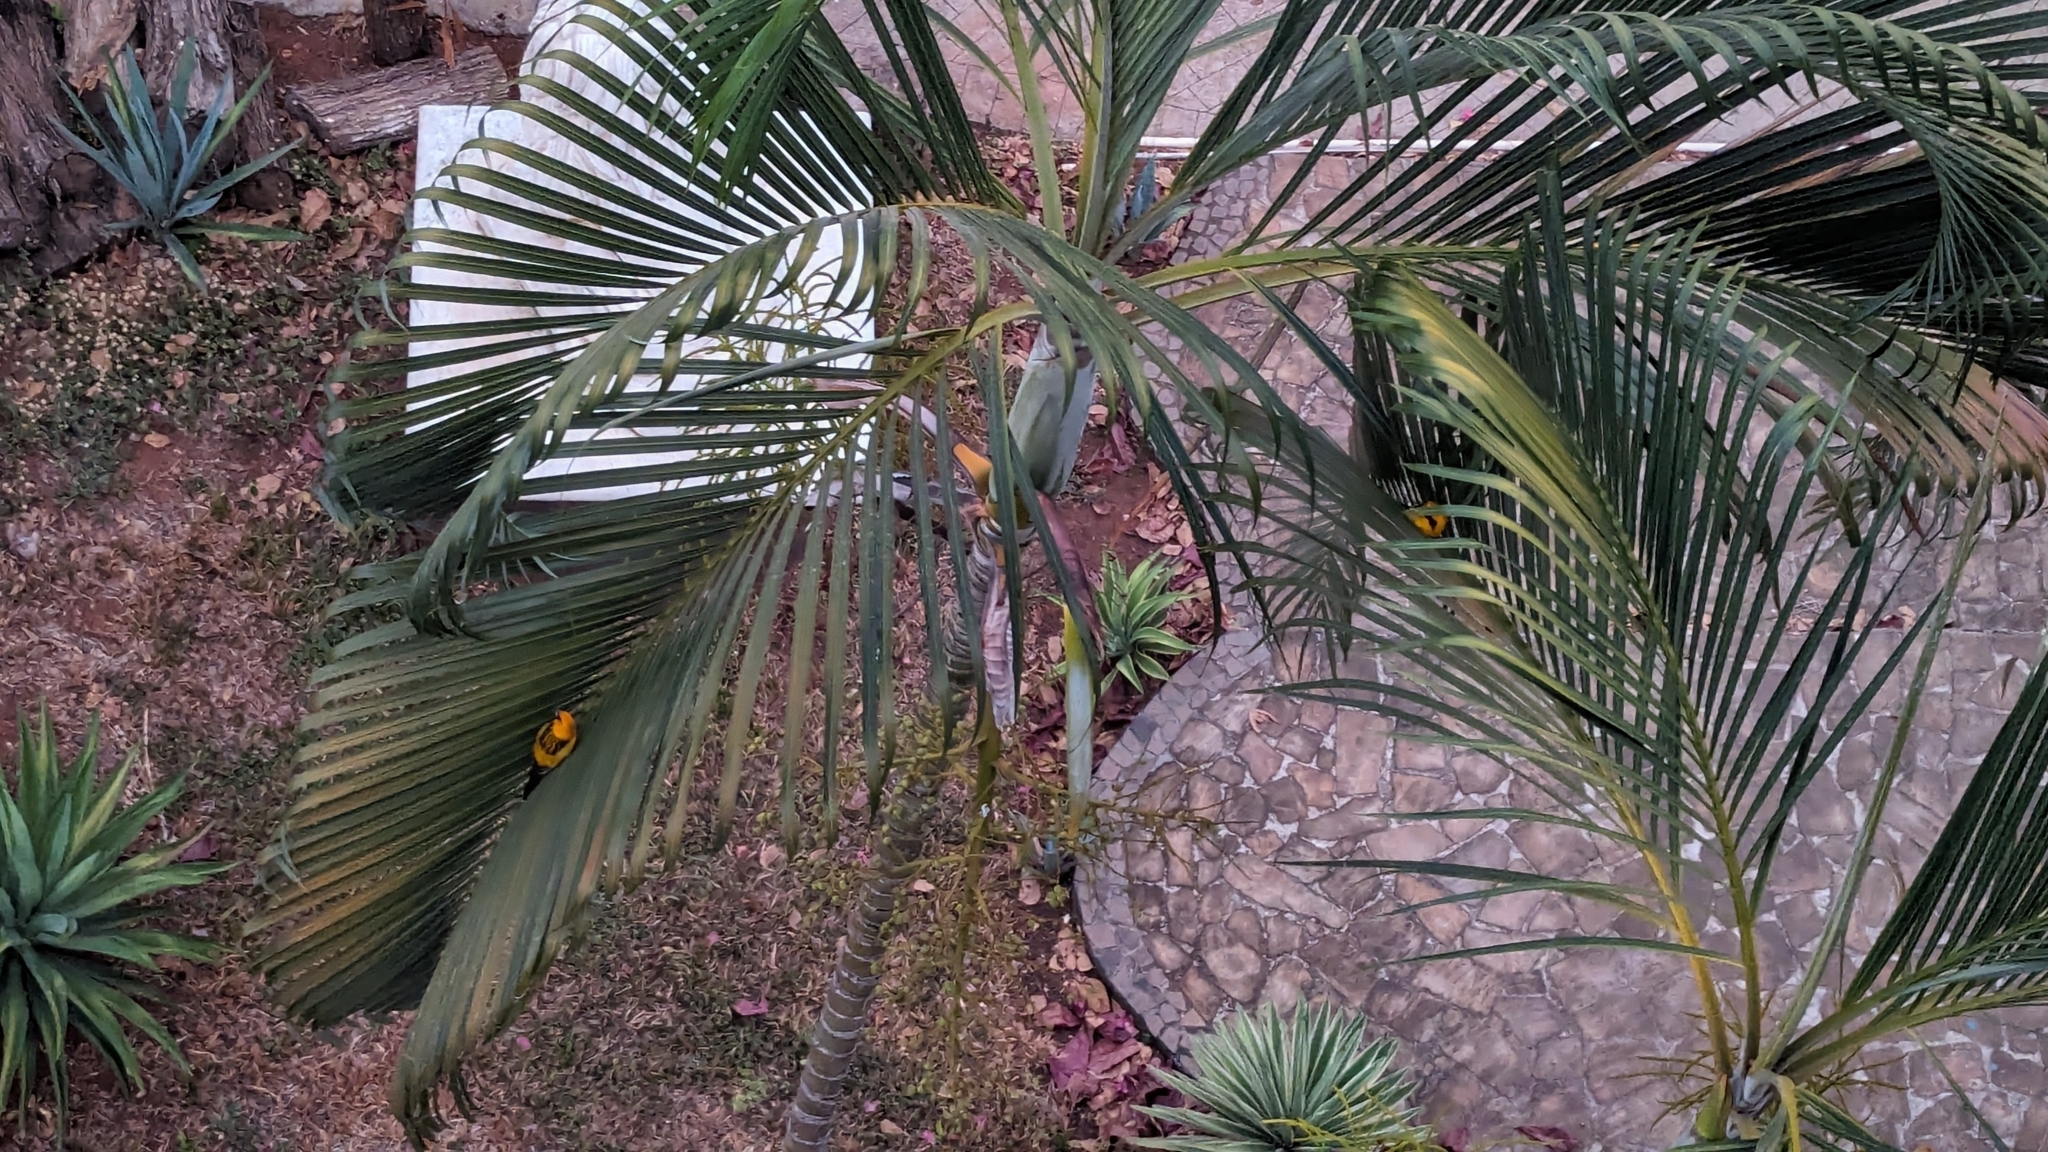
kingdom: Animalia
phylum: Chordata
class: Aves
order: Passeriformes
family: Icteridae
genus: Icterus
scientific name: Icterus pustulatus
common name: Streak-backed oriole
